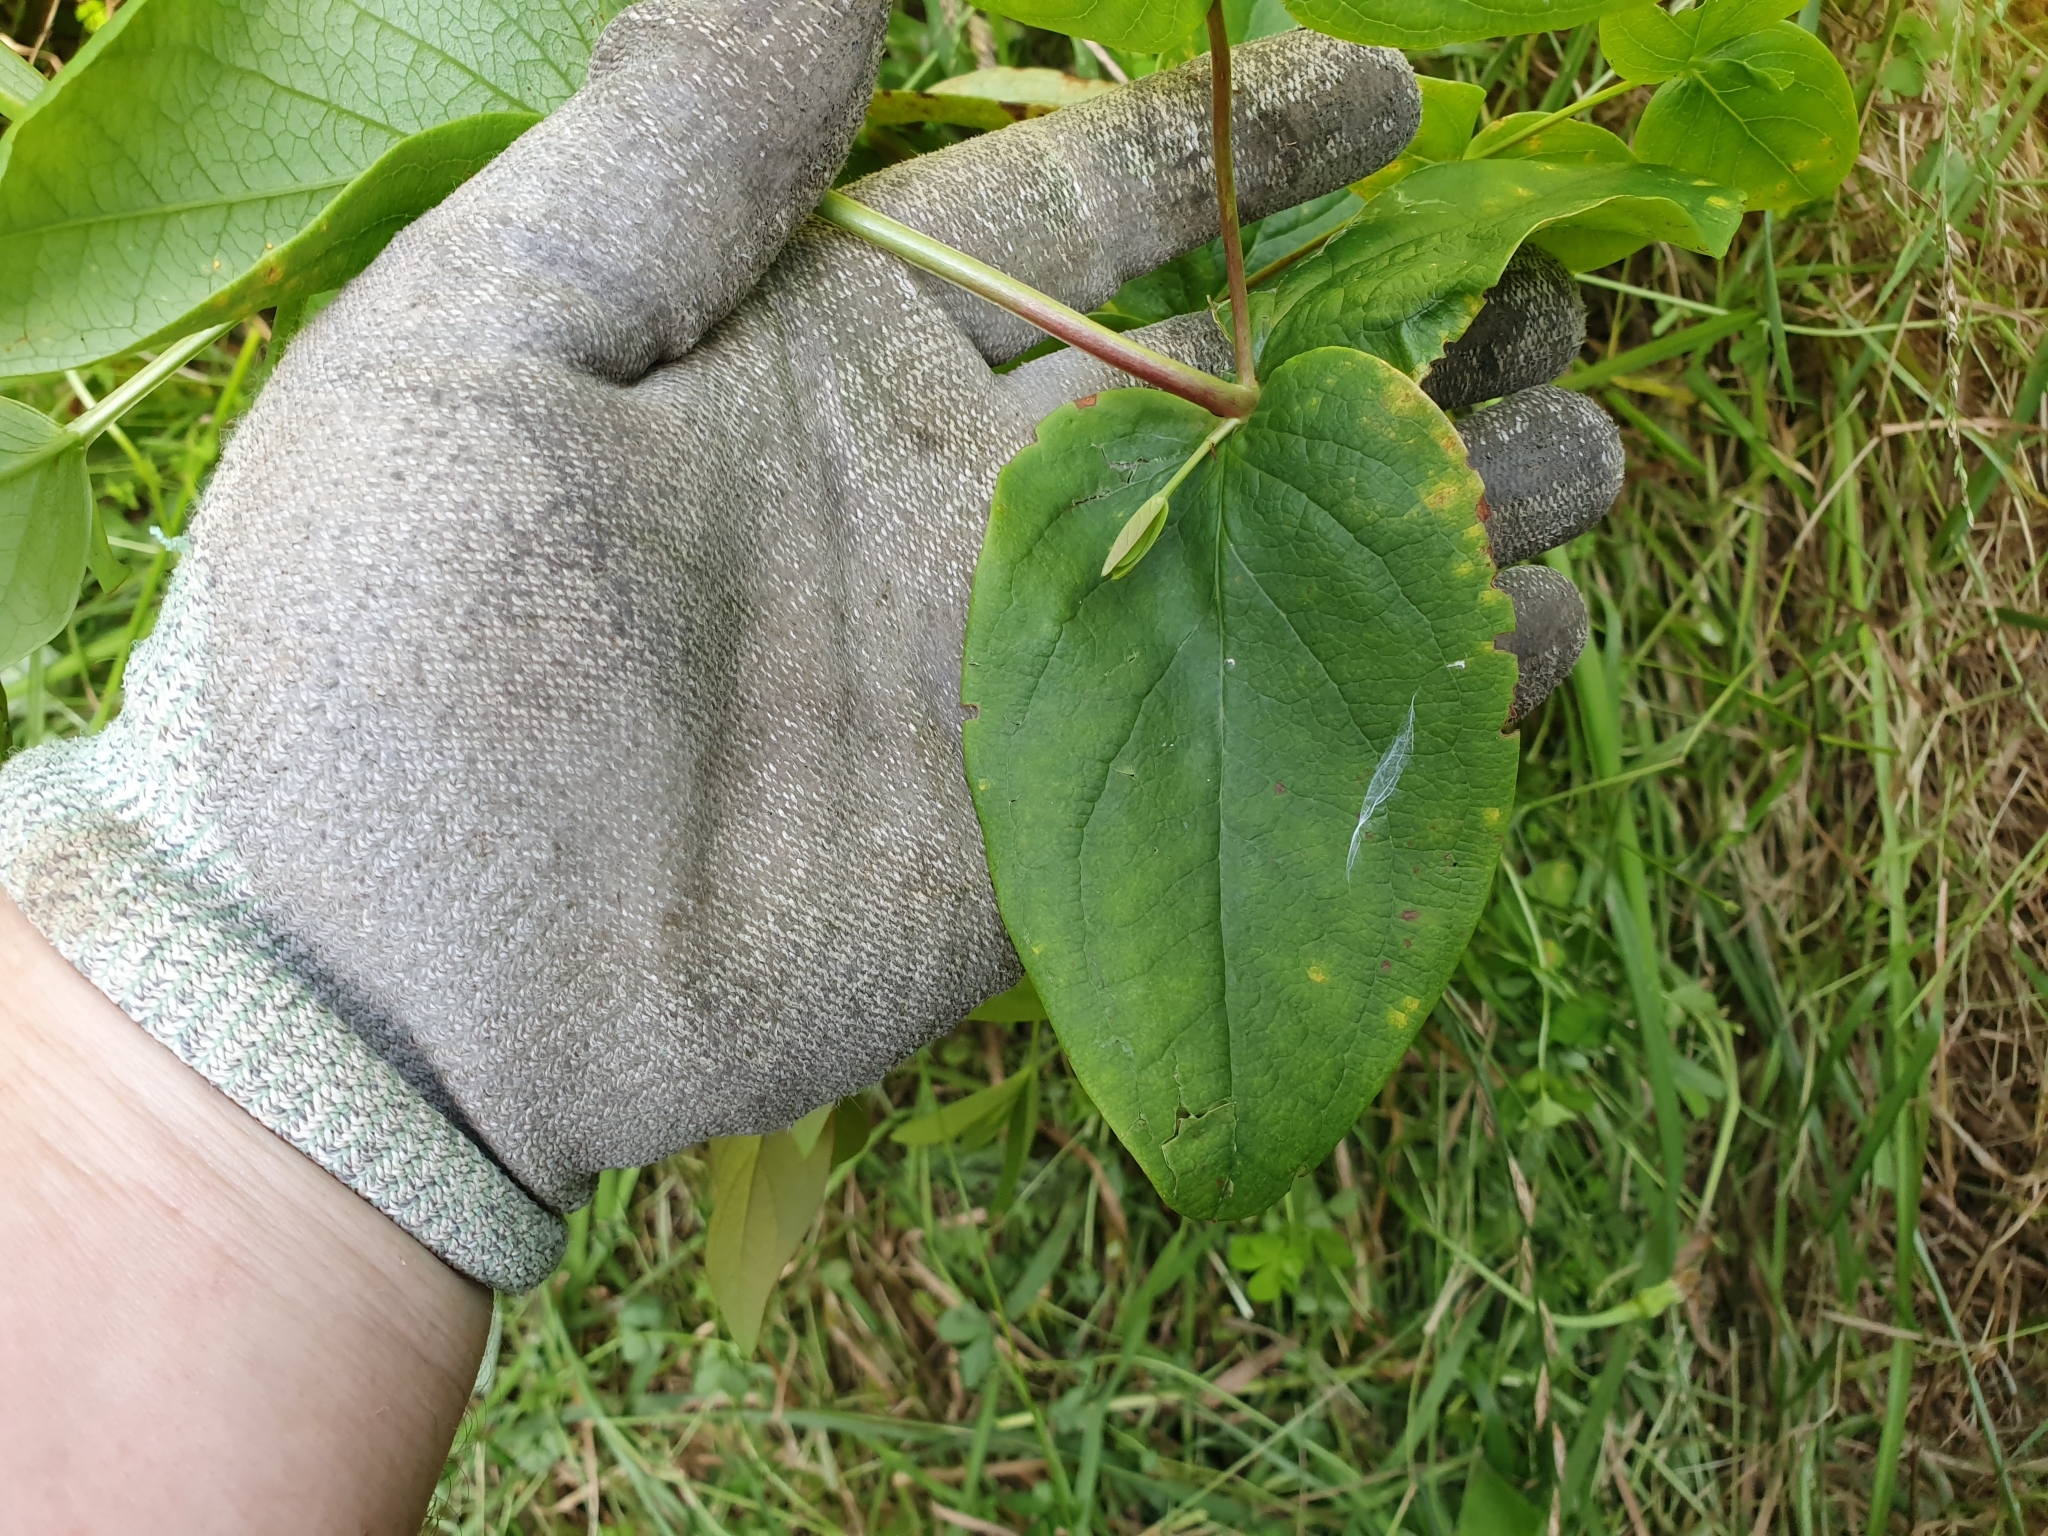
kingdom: Plantae
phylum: Tracheophyta
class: Magnoliopsida
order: Malpighiales
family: Hypericaceae
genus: Hypericum
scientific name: Hypericum androsaemum
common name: Sweet-amber
